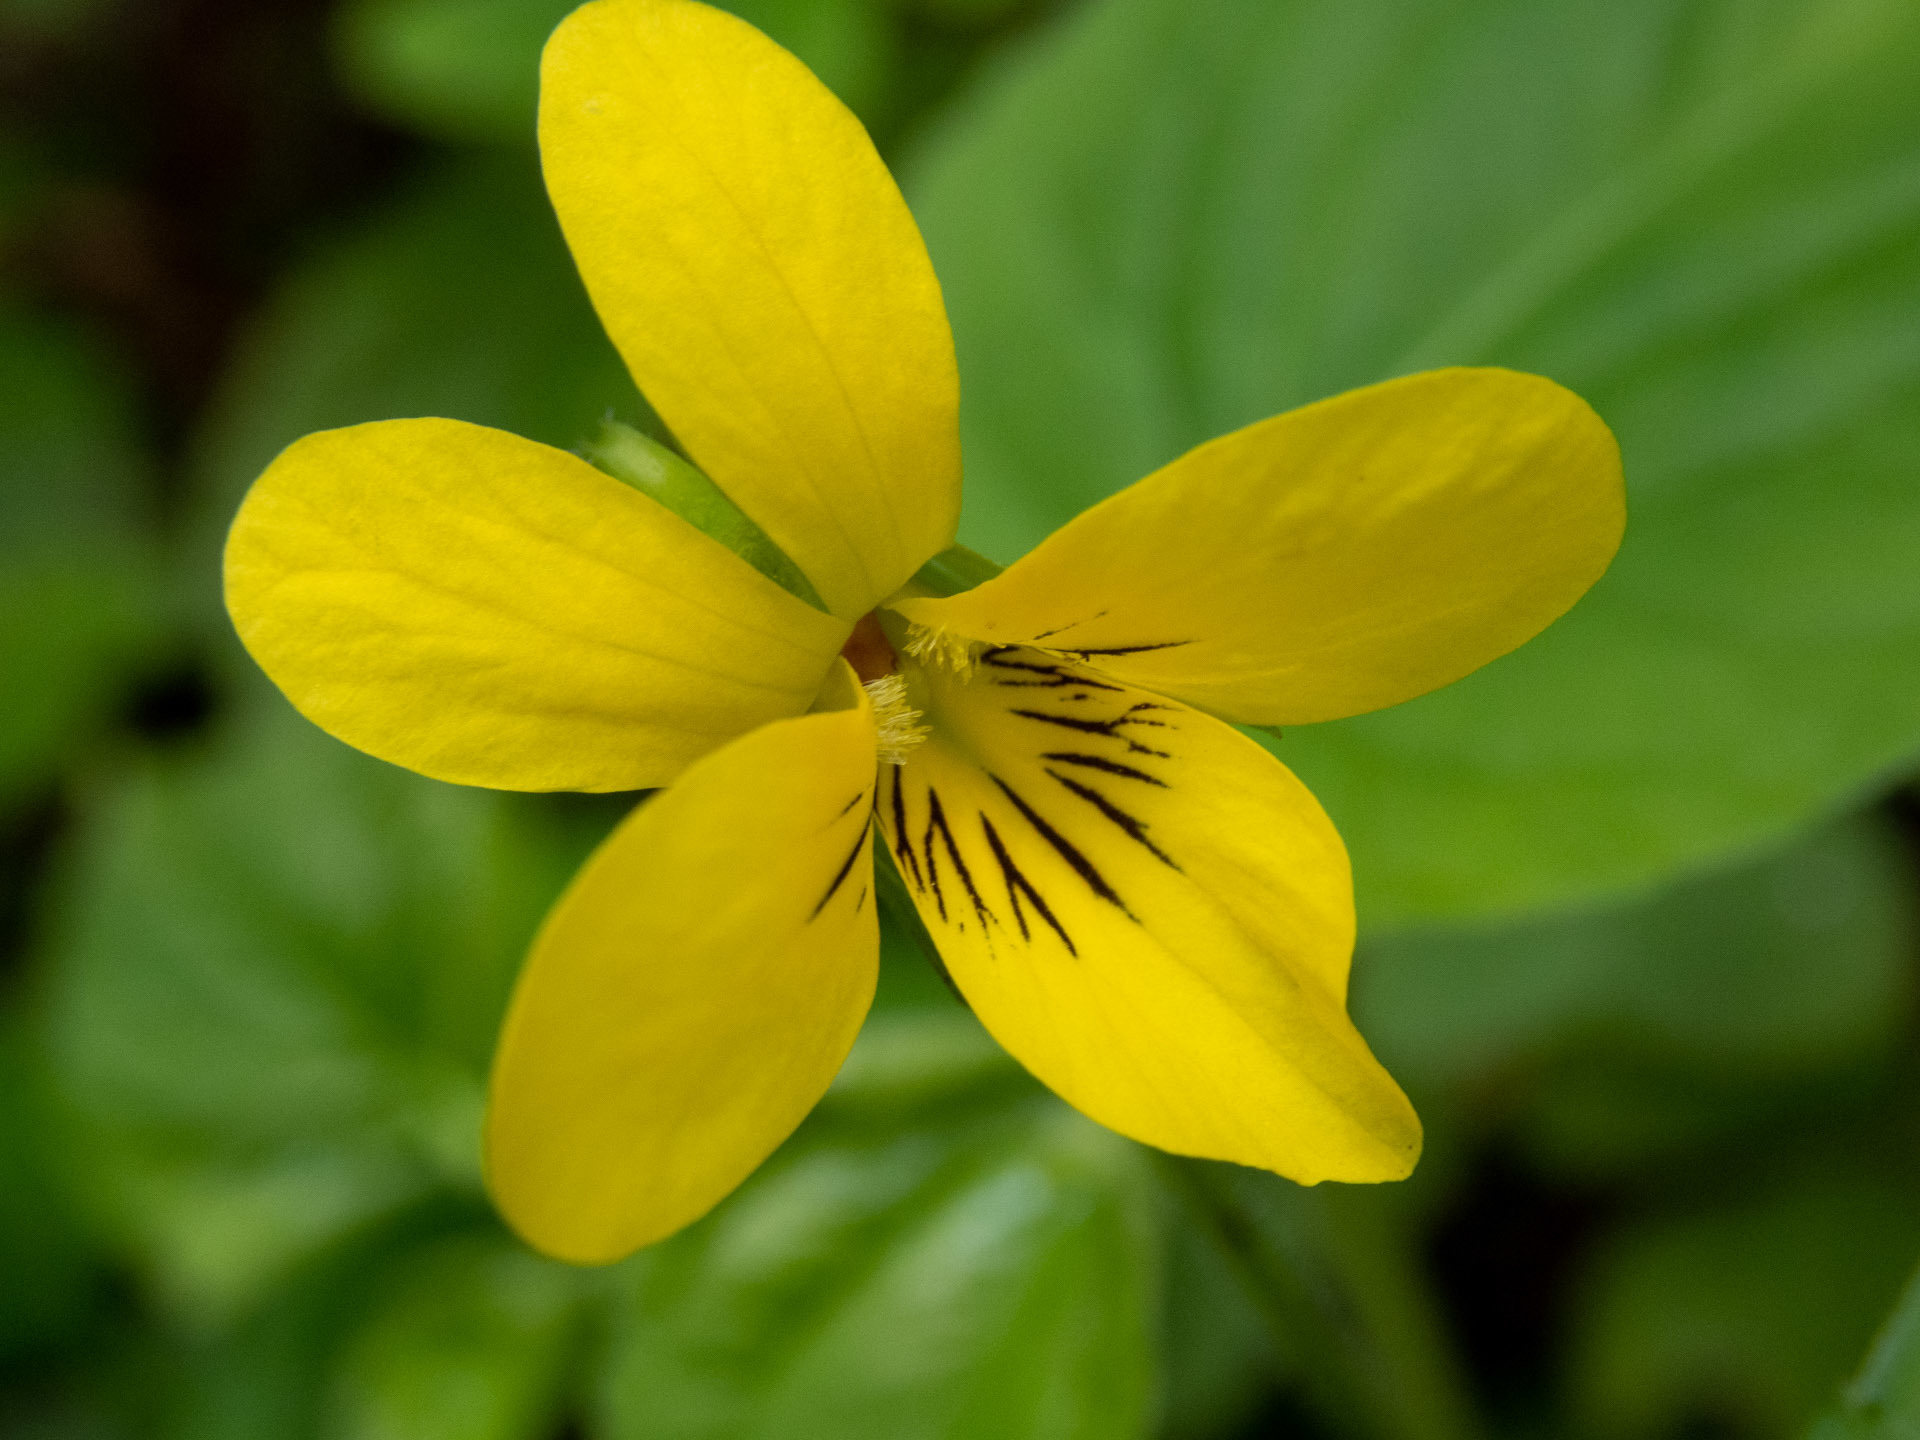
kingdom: Plantae
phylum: Tracheophyta
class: Magnoliopsida
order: Malpighiales
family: Violaceae
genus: Viola
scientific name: Viola glabella
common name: Stream violet
